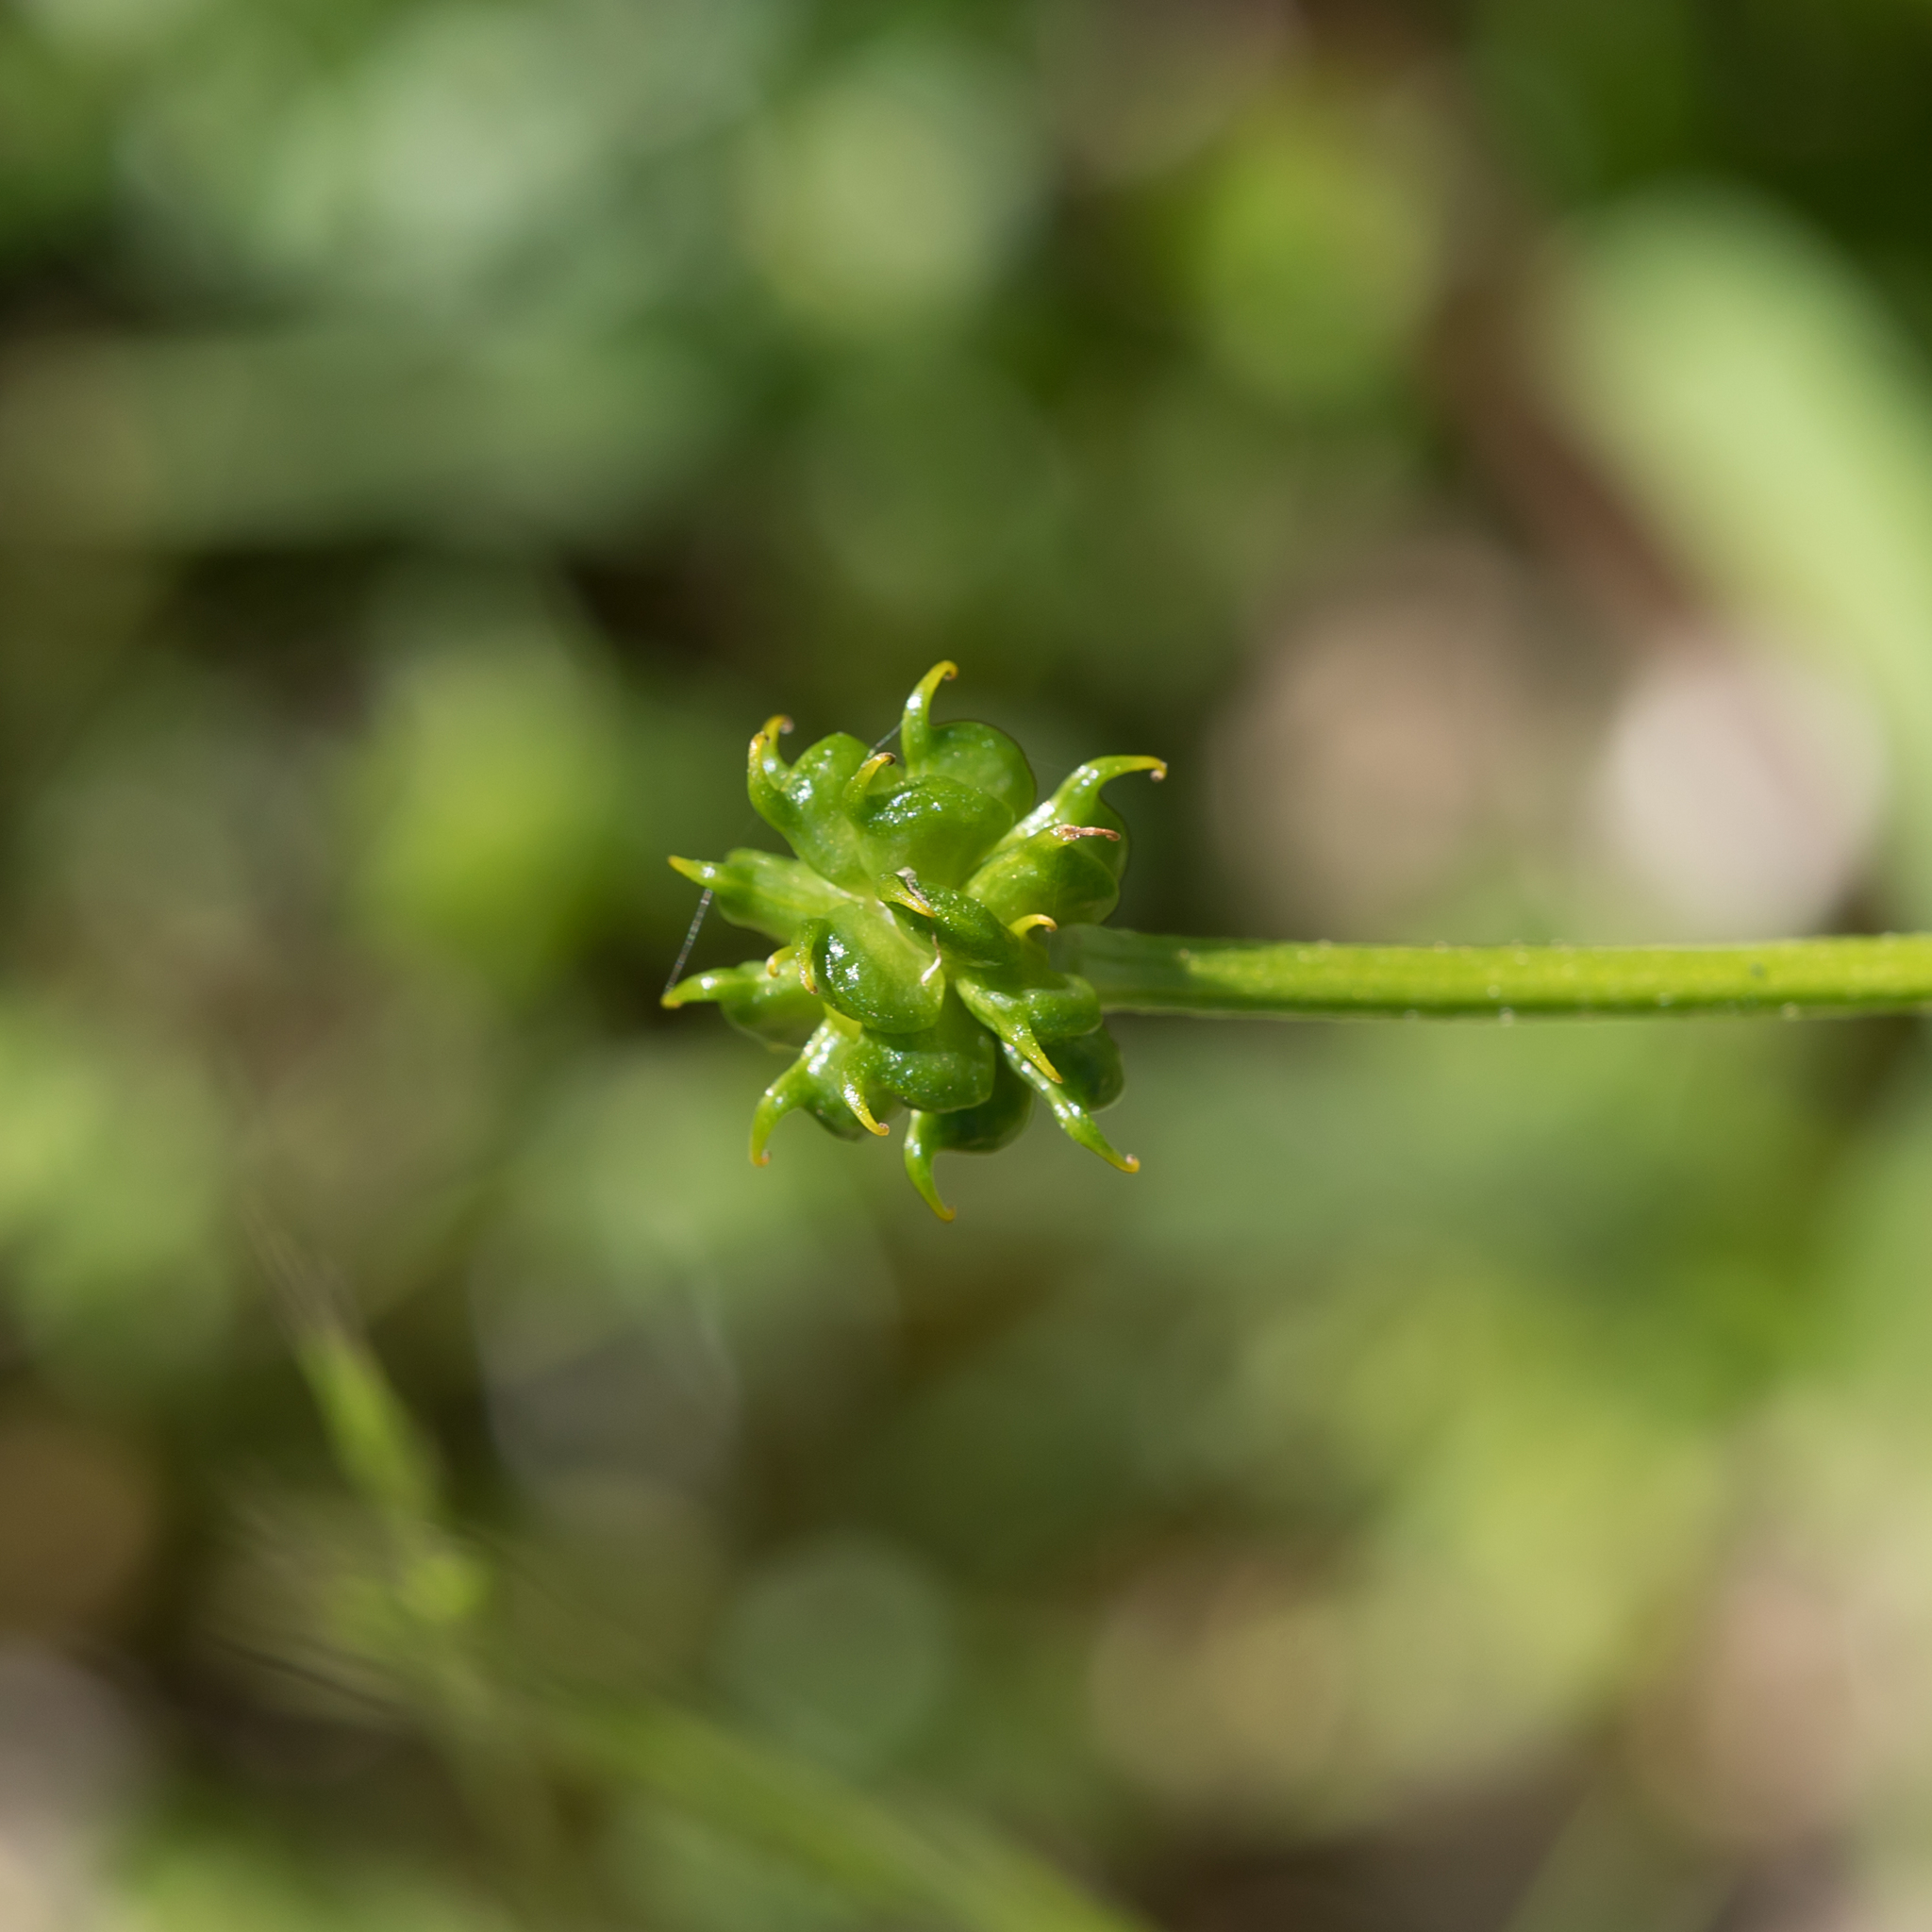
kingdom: Plantae
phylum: Tracheophyta
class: Magnoliopsida
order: Ranunculales
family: Ranunculaceae
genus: Ranunculus
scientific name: Ranunculus lappaceus
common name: Australian buttercup
